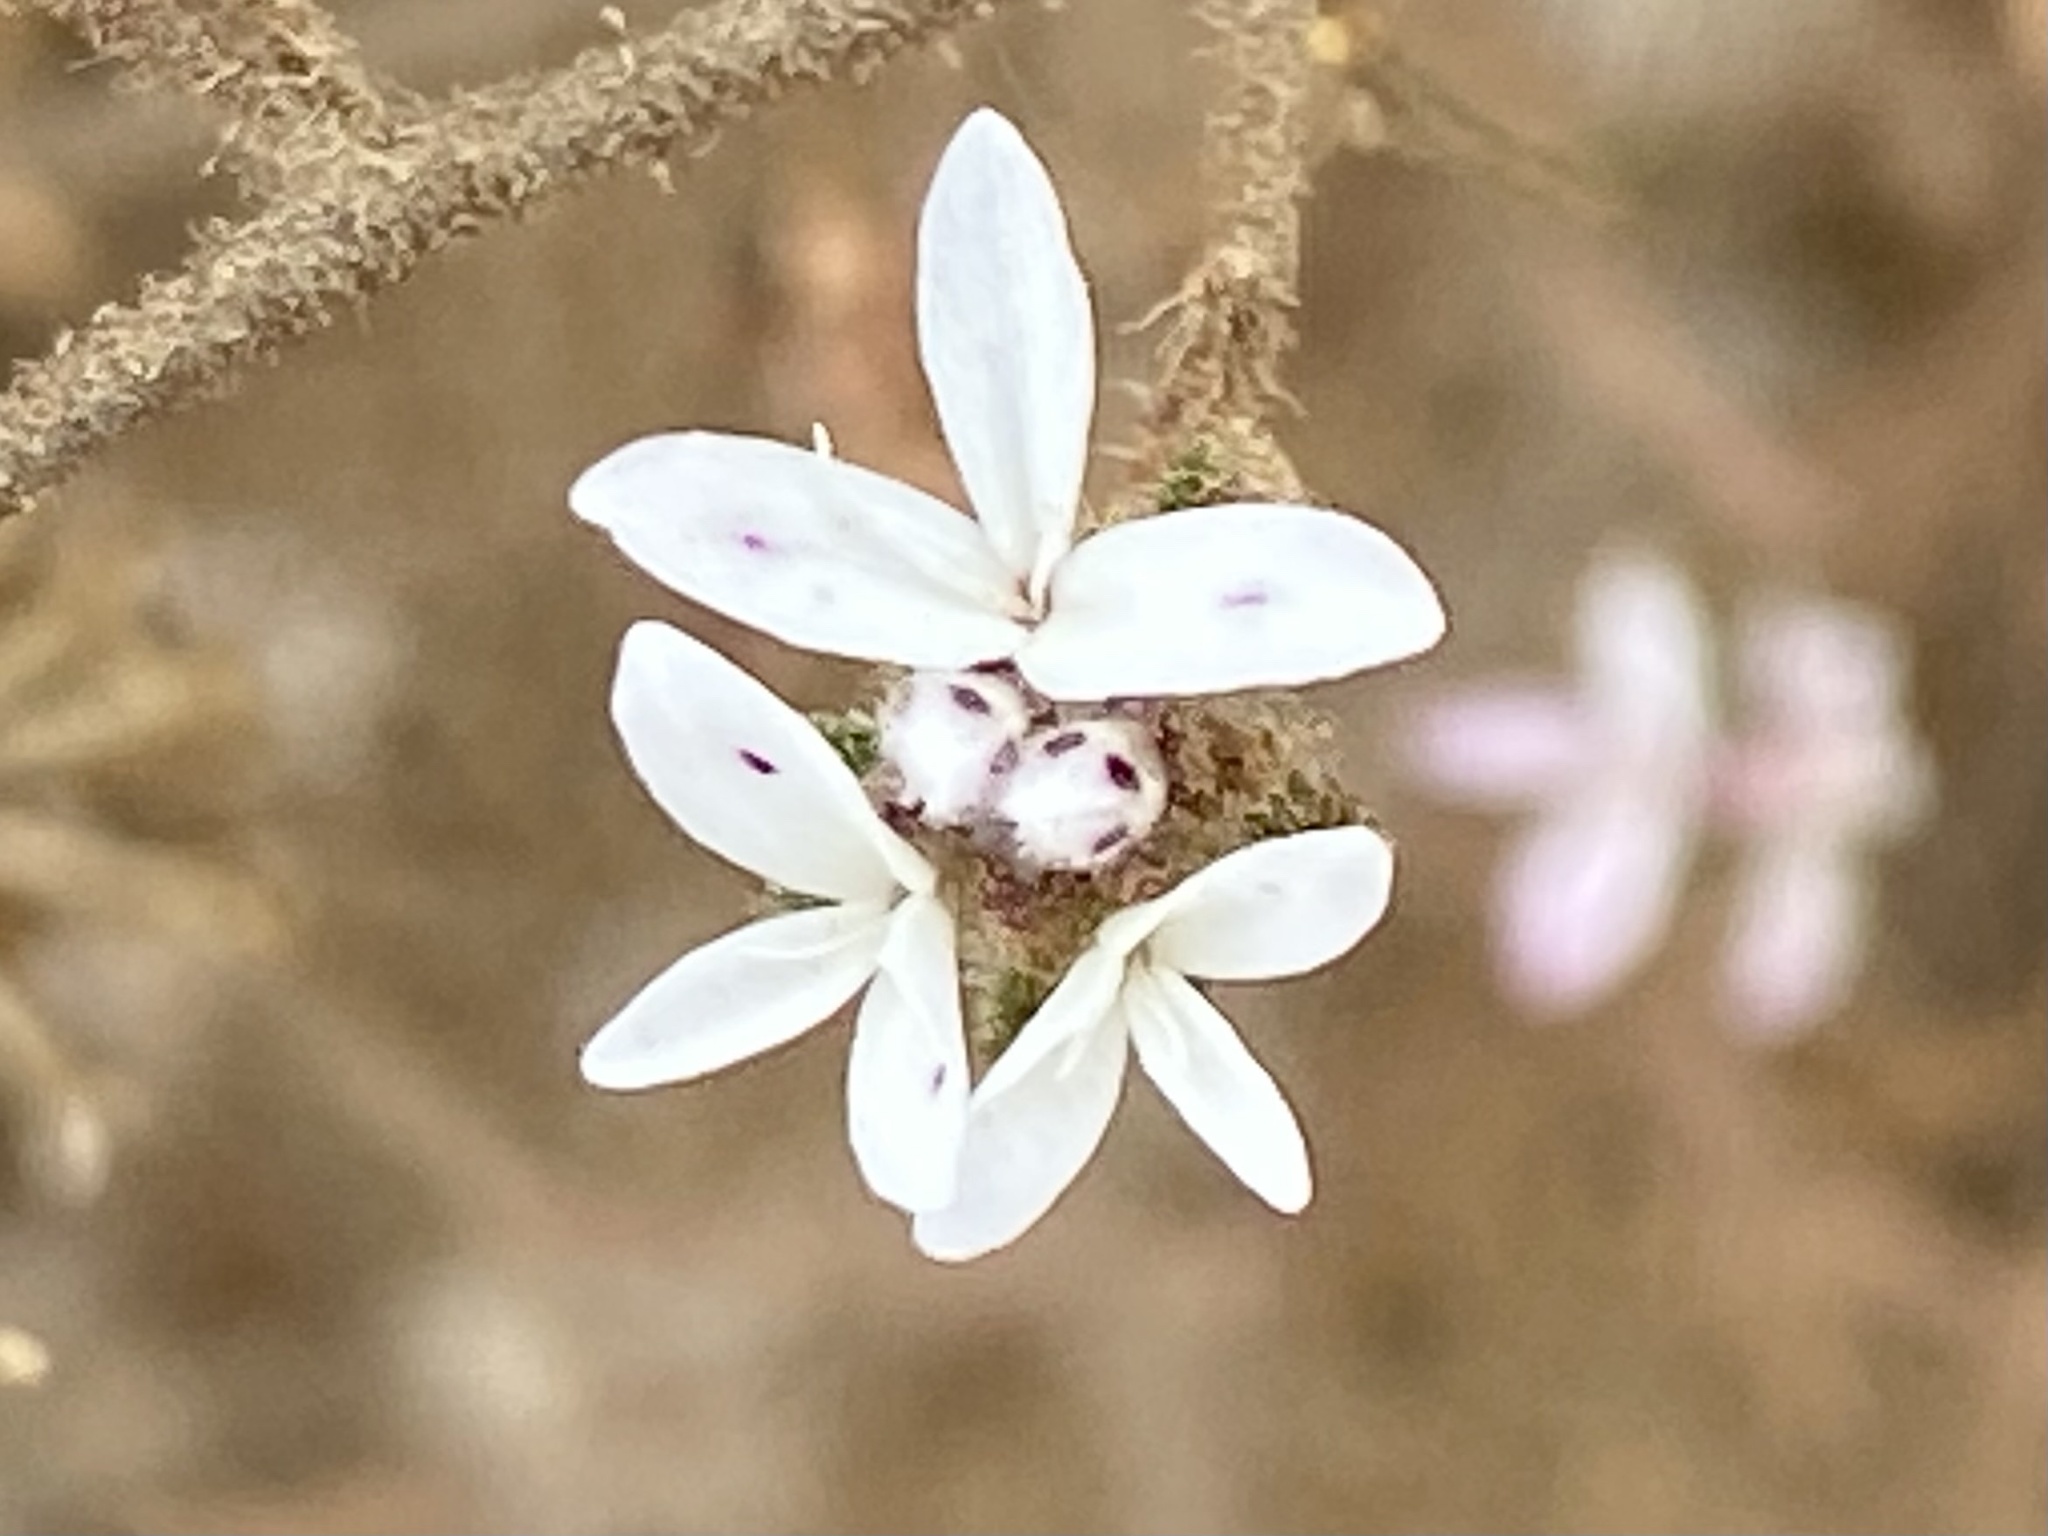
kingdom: Plantae
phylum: Tracheophyta
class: Magnoliopsida
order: Asterales
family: Asteraceae
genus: Osmadenia
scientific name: Osmadenia tenella
